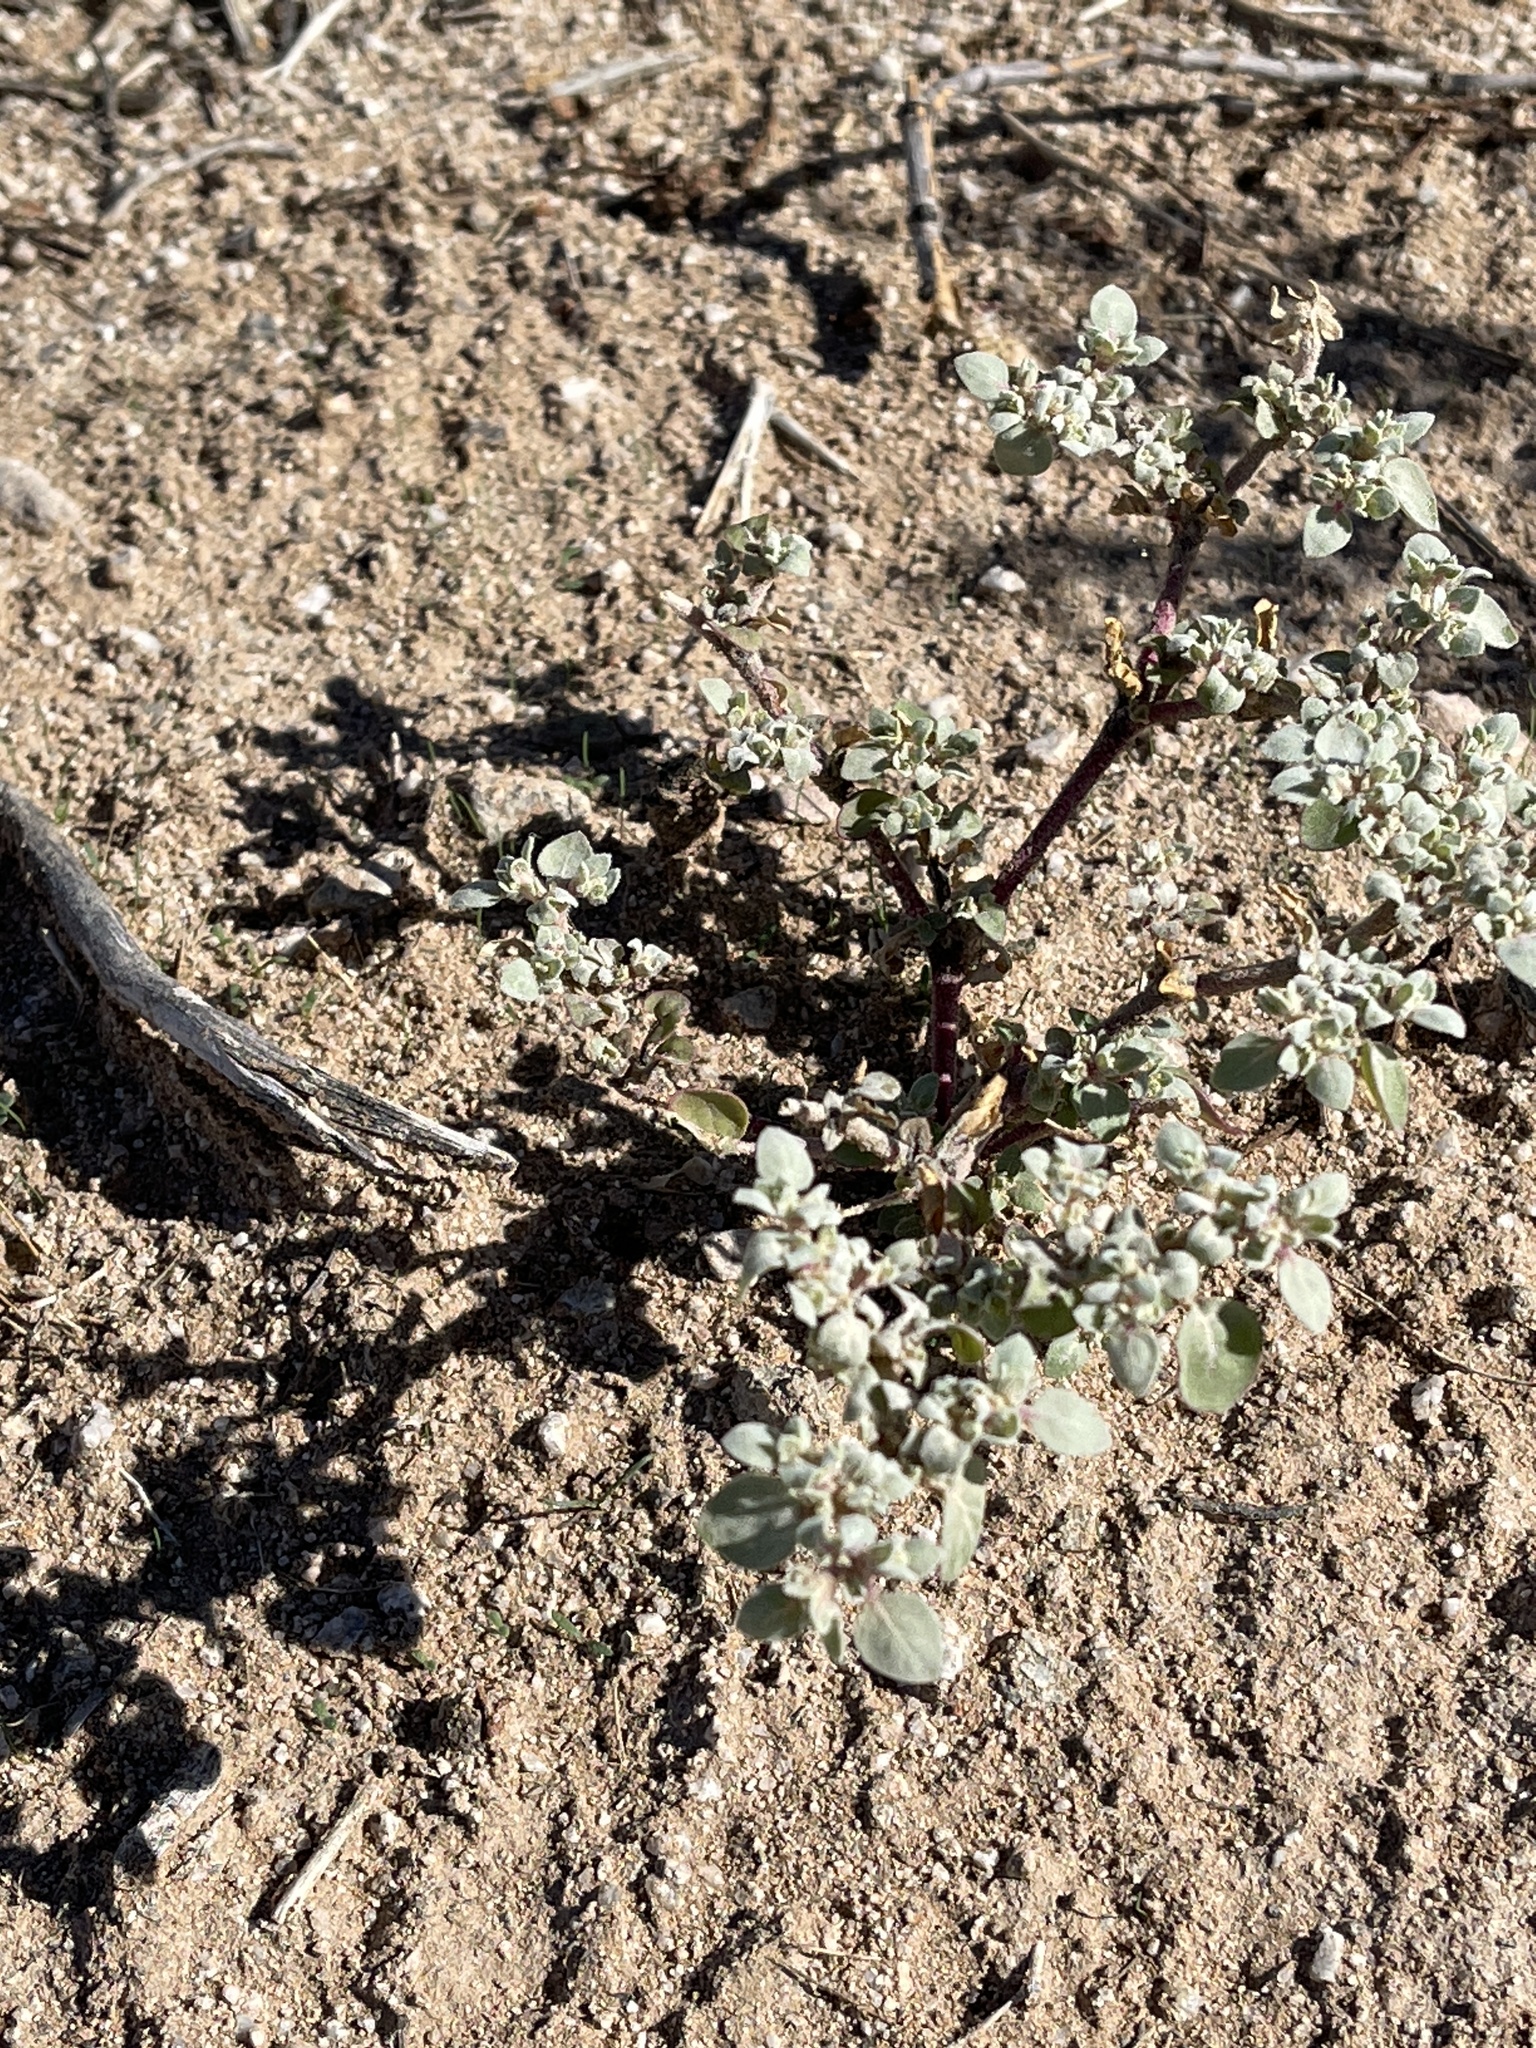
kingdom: Plantae
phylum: Tracheophyta
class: Magnoliopsida
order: Caryophyllales
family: Amaranthaceae
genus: Tidestromia
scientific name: Tidestromia lanuginosa
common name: Woolly tidestromia
